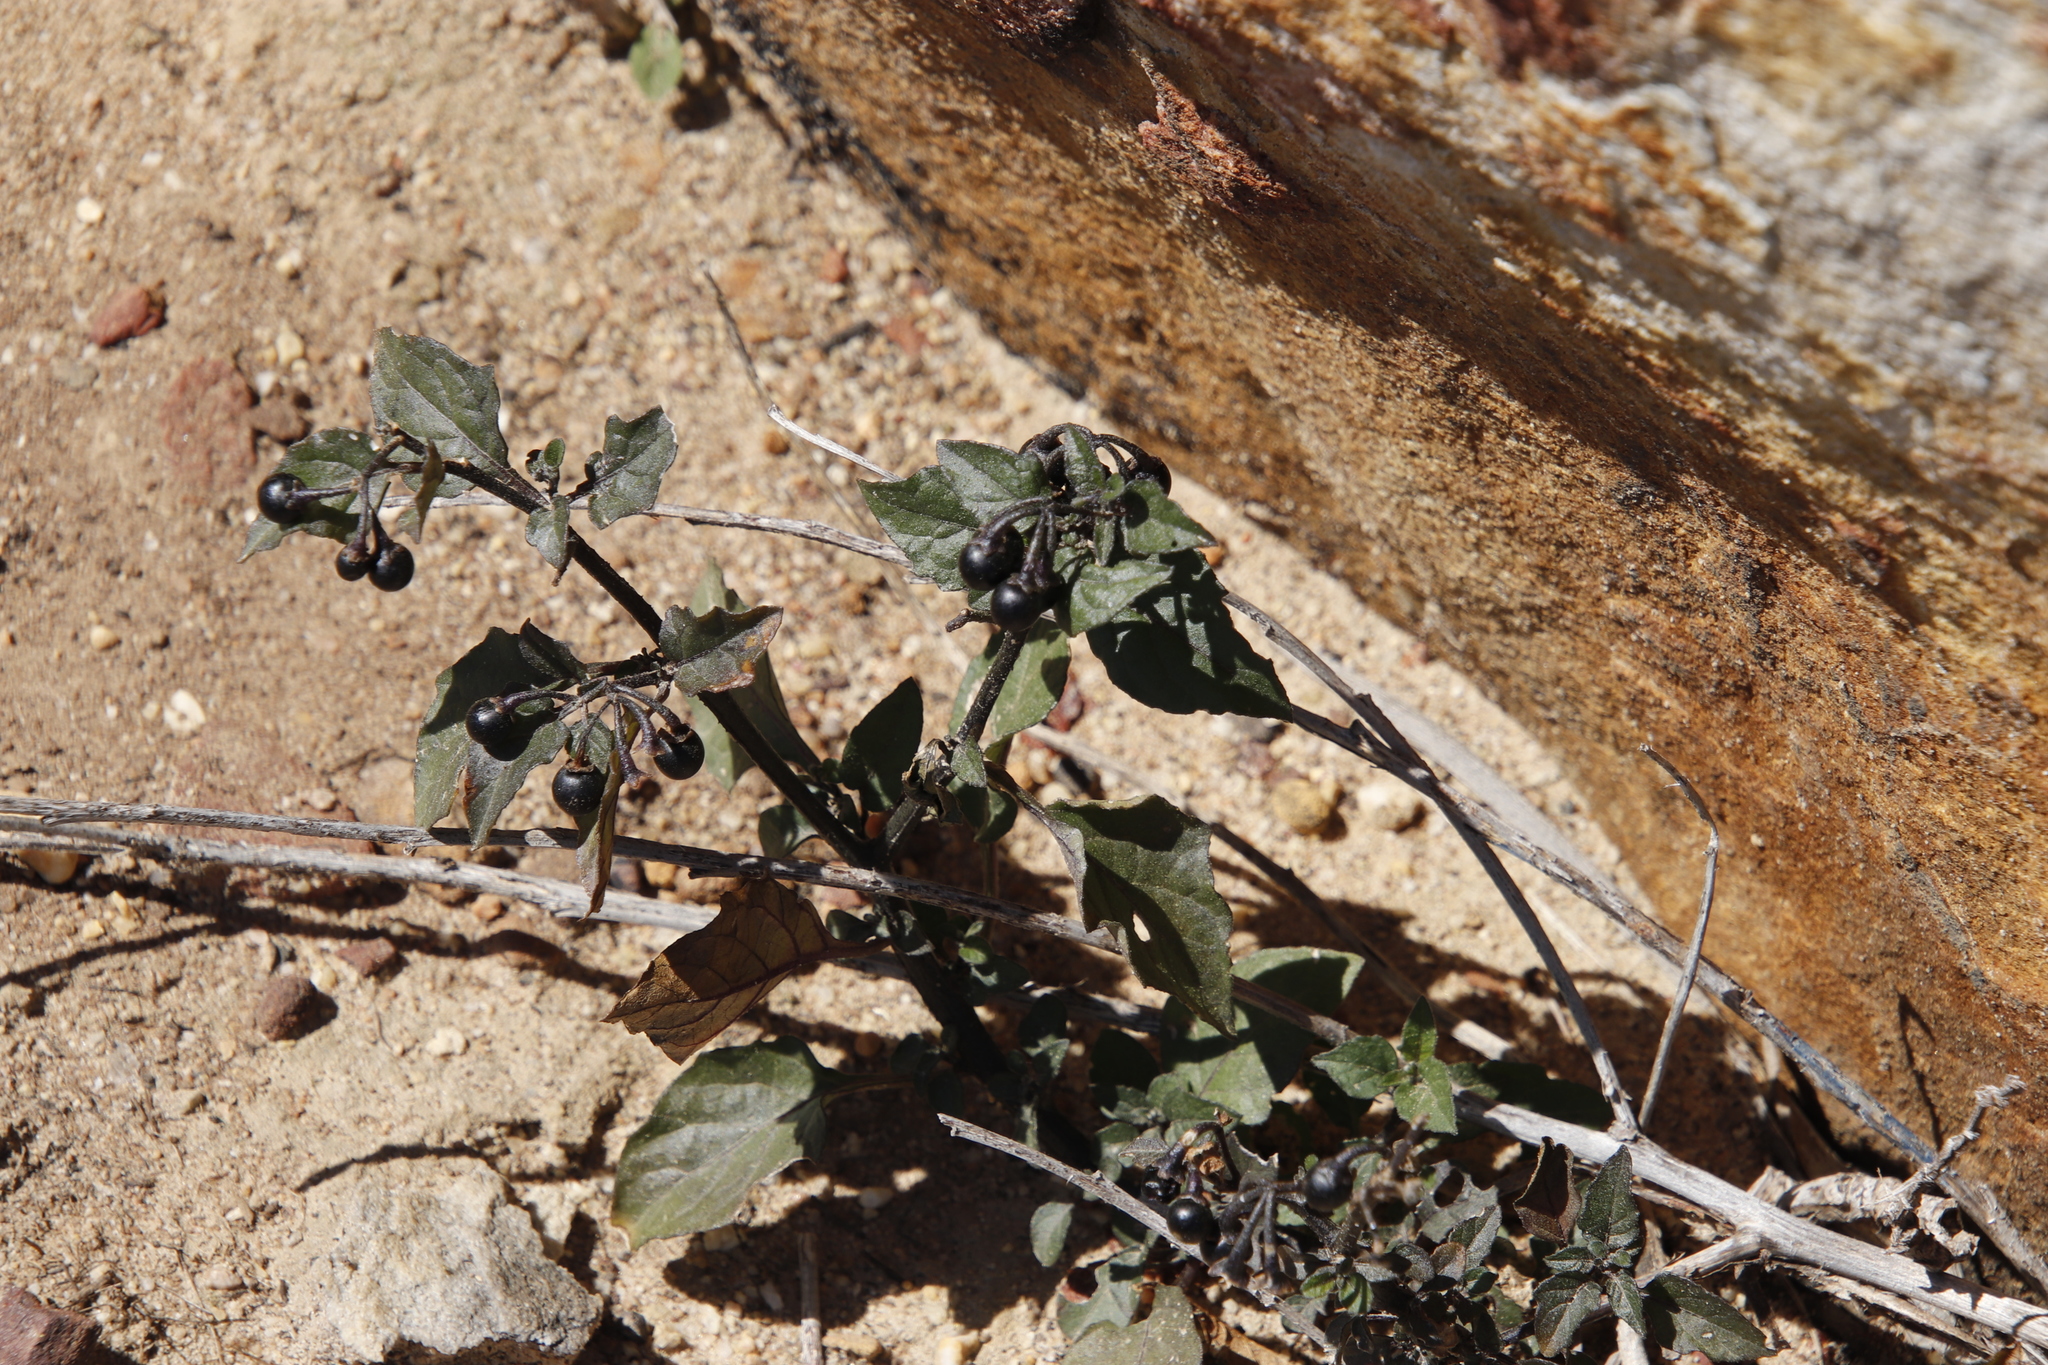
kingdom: Plantae
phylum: Tracheophyta
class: Magnoliopsida
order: Solanales
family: Solanaceae
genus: Solanum
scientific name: Solanum nigrum
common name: Black nightshade
